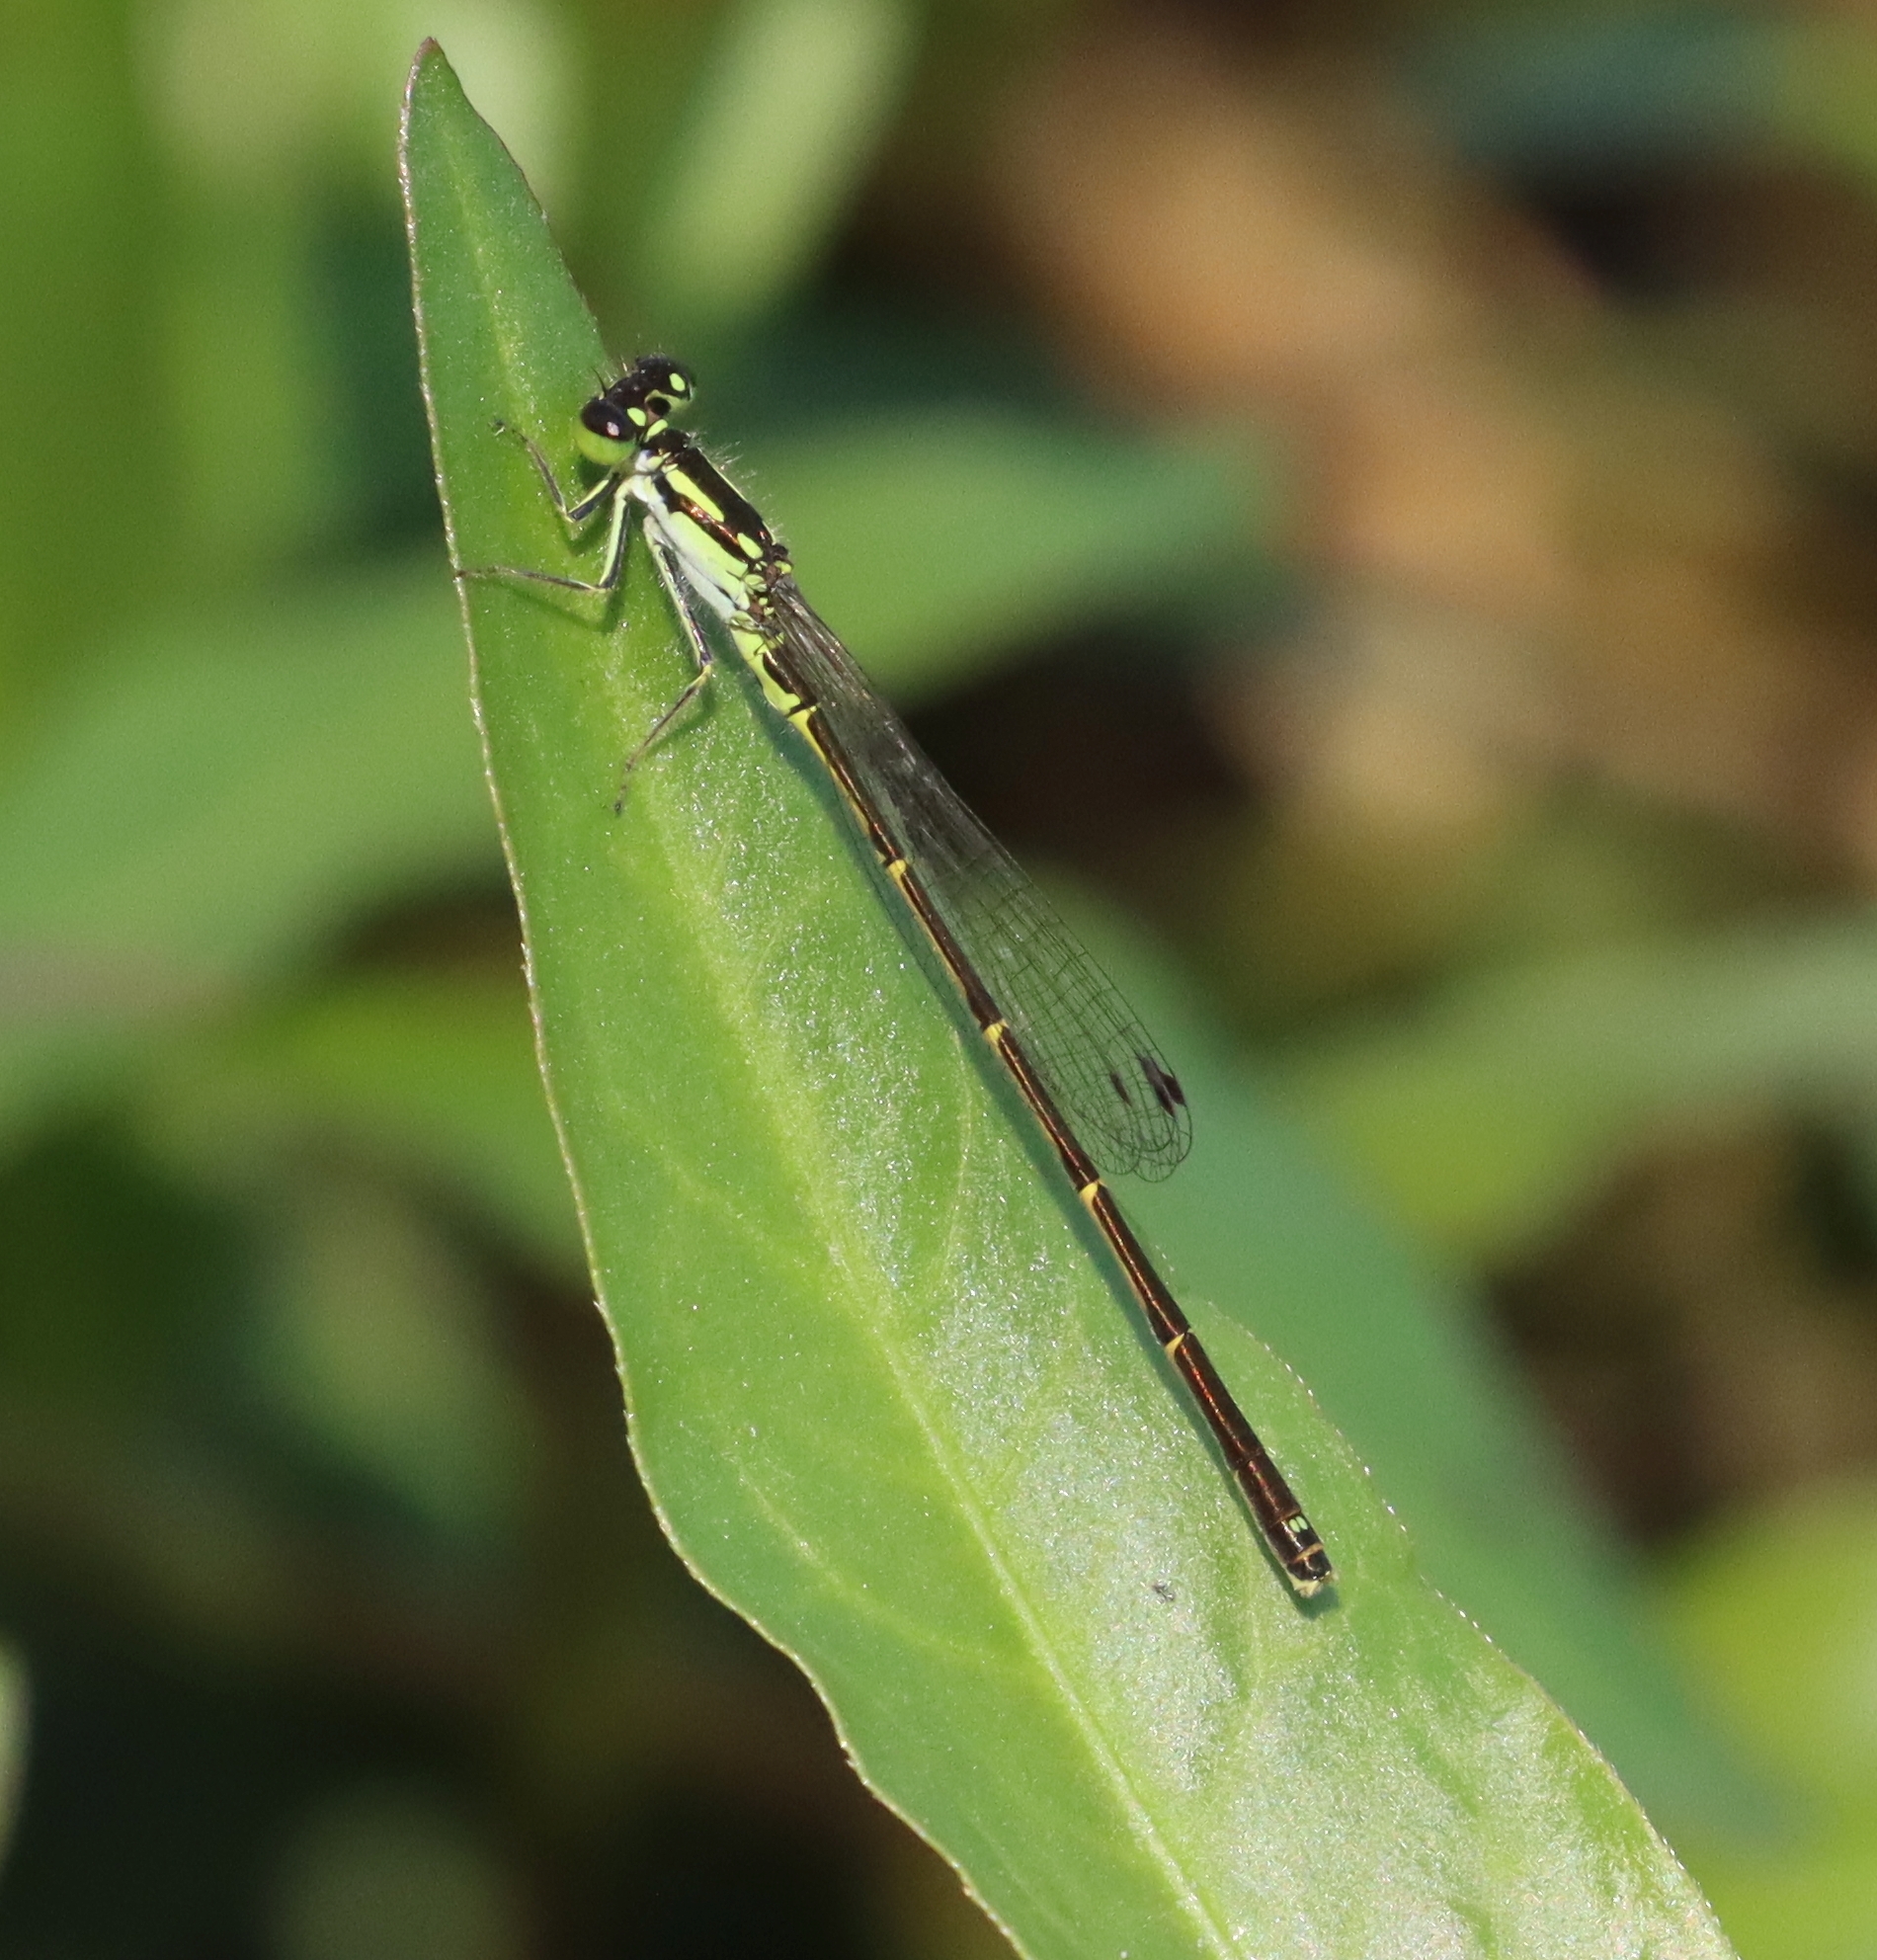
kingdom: Animalia
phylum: Arthropoda
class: Insecta
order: Odonata
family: Coenagrionidae
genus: Ischnura
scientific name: Ischnura posita
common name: Fragile forktail
